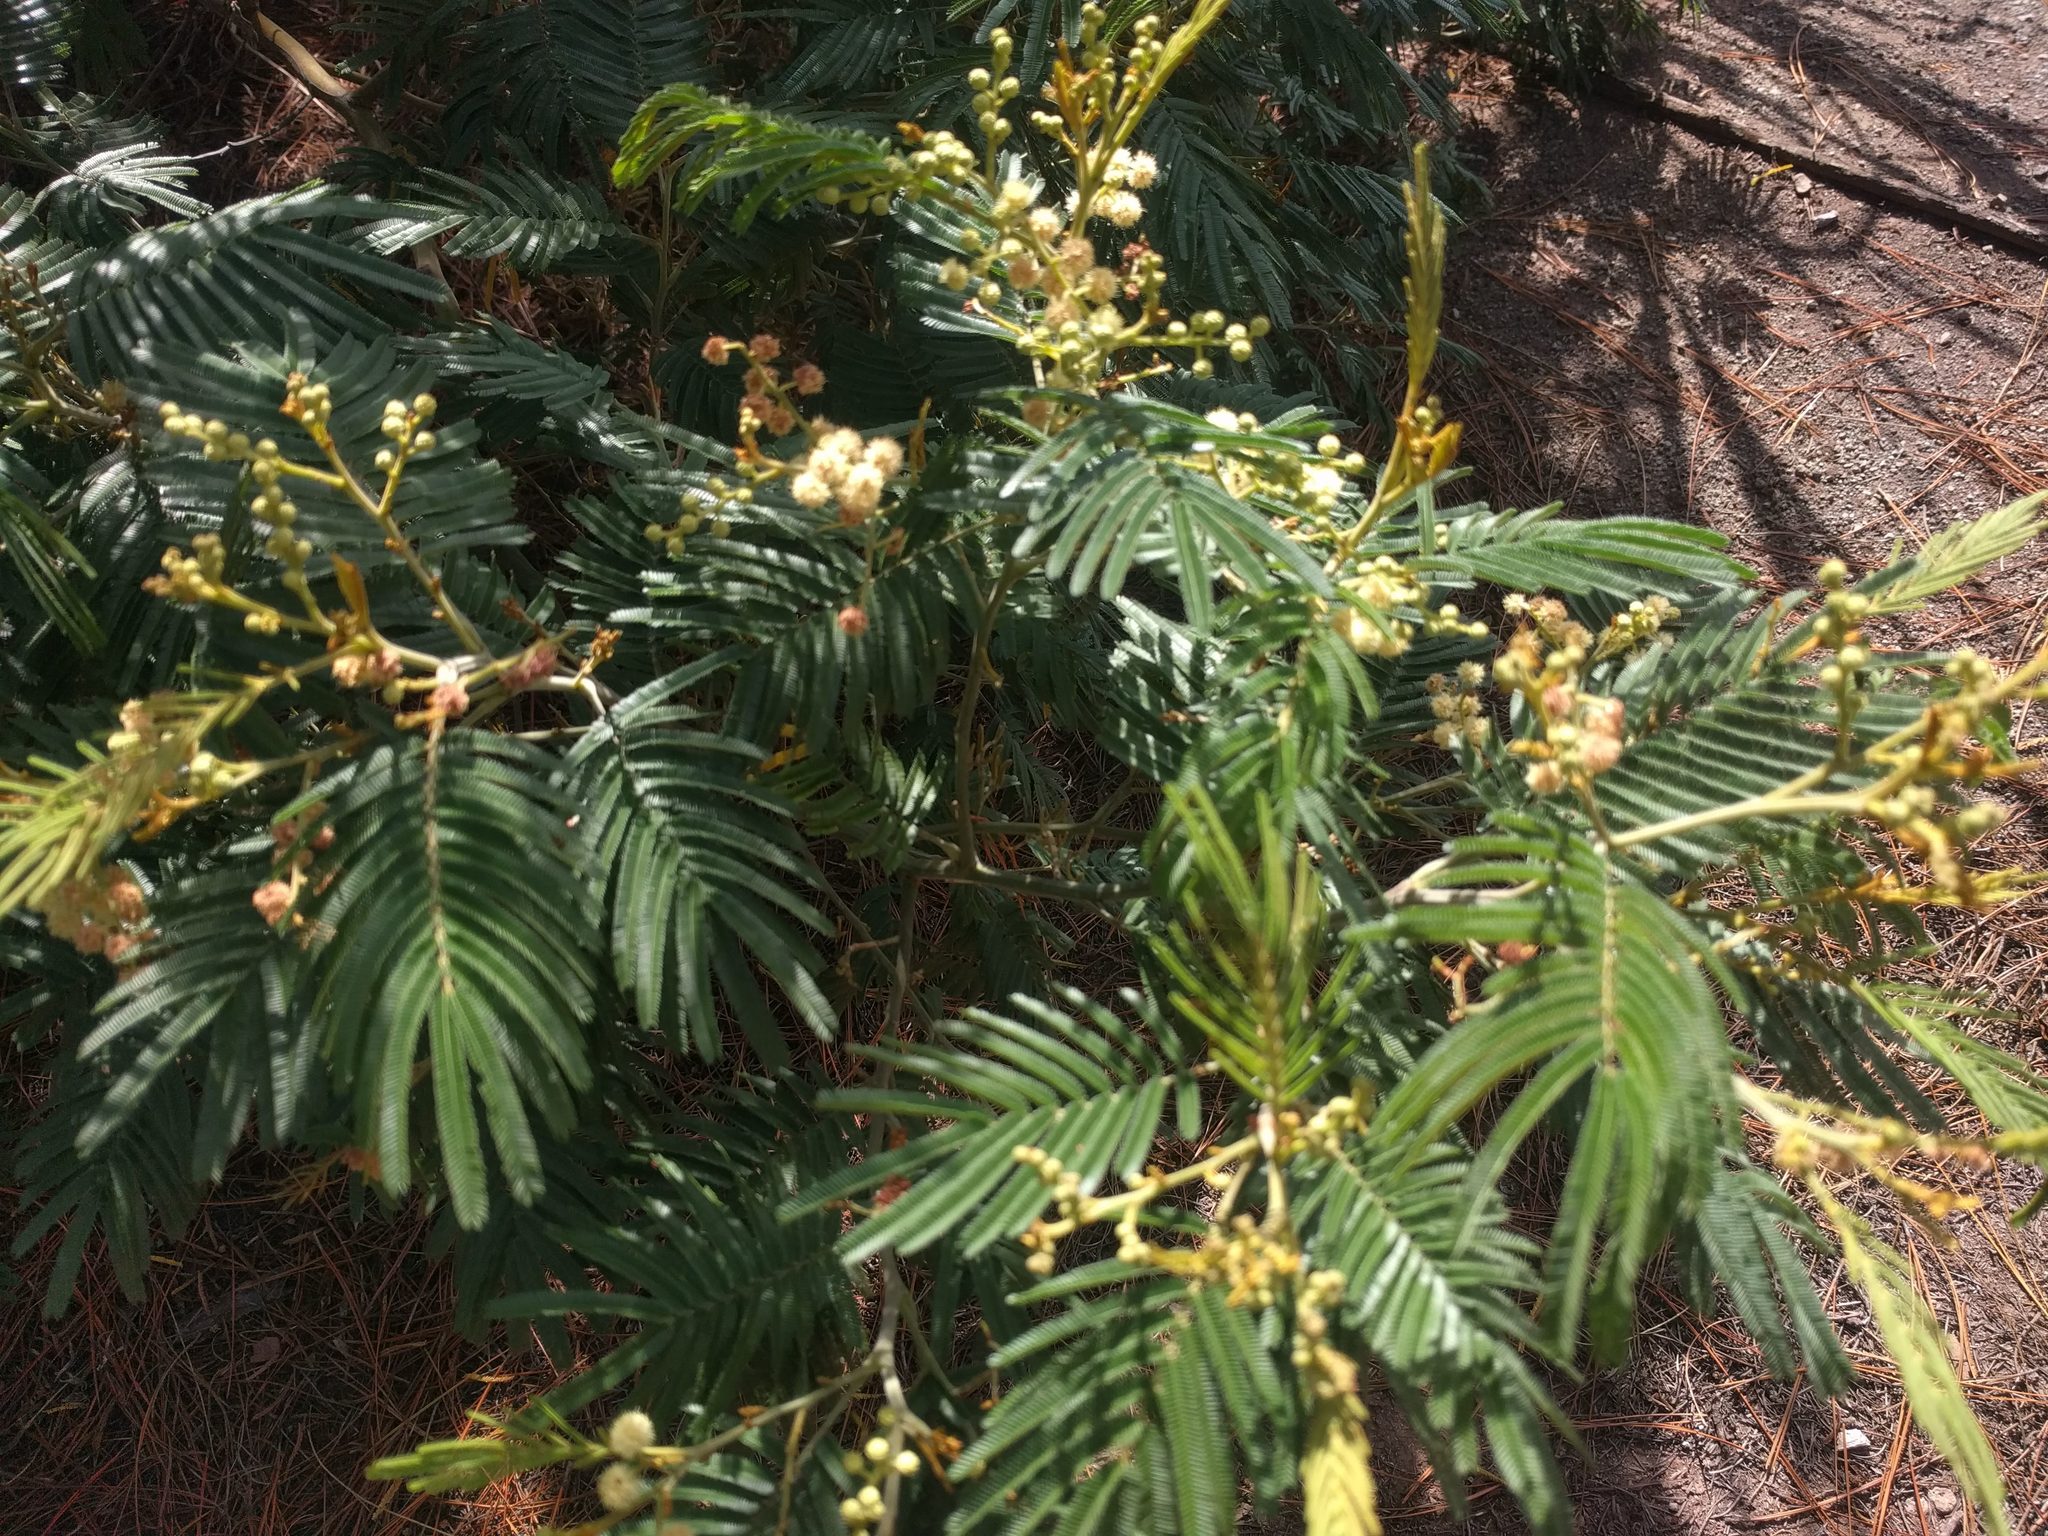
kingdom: Plantae
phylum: Tracheophyta
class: Magnoliopsida
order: Fabales
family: Fabaceae
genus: Acacia
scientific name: Acacia mearnsii
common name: Black wattle
